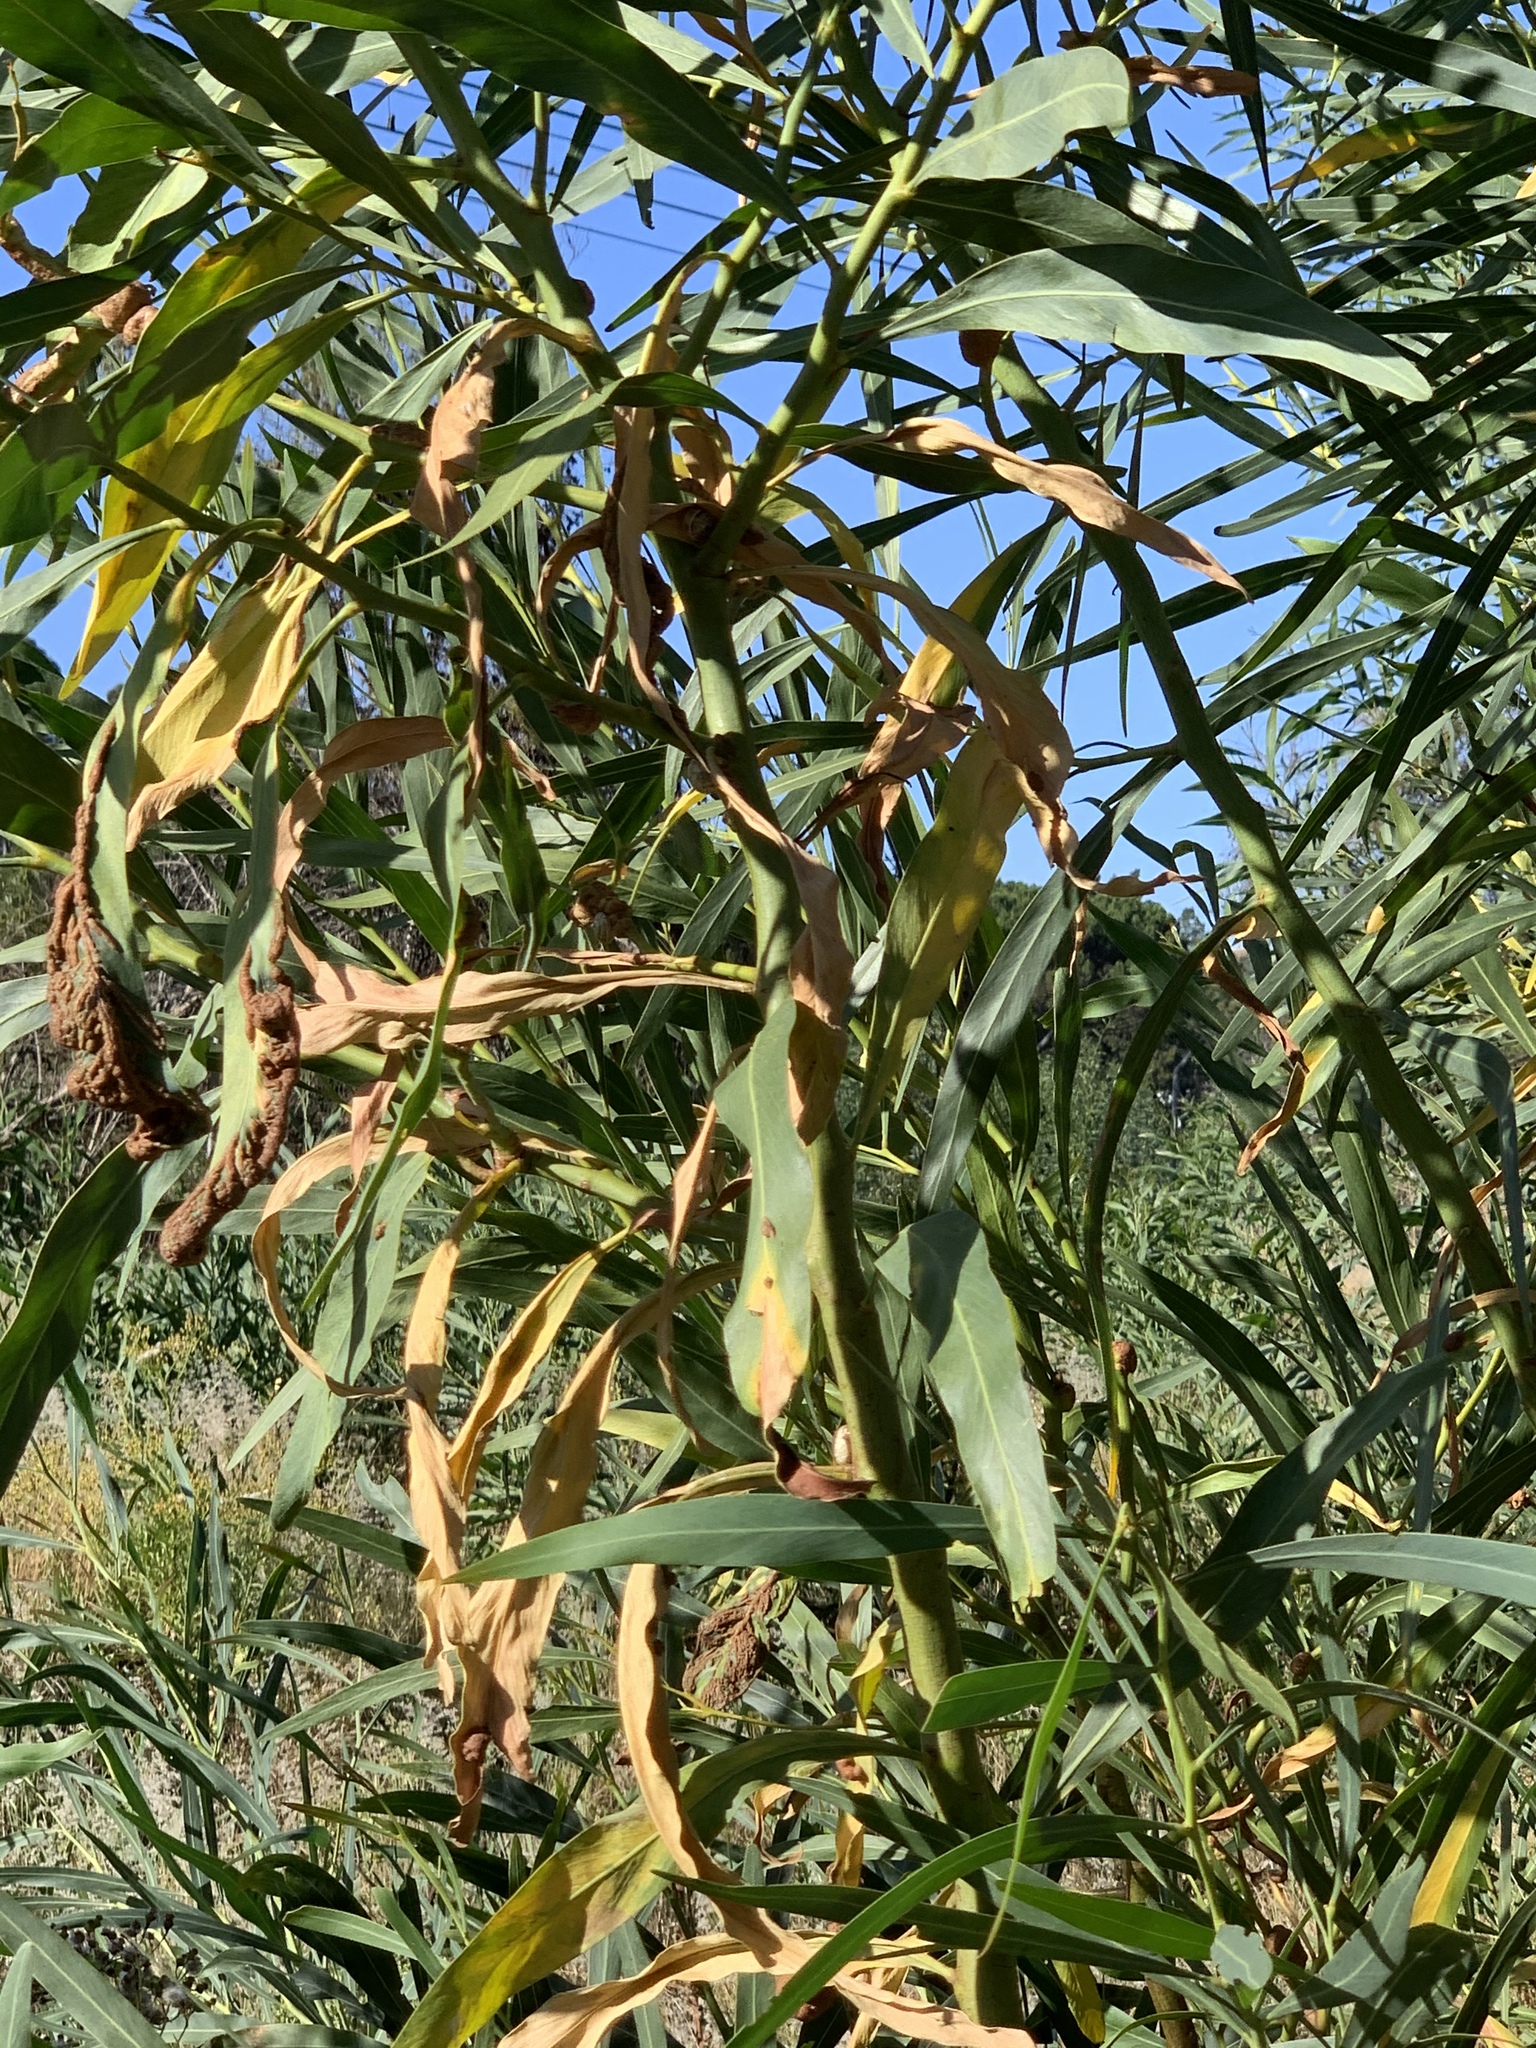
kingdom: Plantae
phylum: Tracheophyta
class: Magnoliopsida
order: Fabales
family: Fabaceae
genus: Acacia
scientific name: Acacia saligna
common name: Orange wattle
